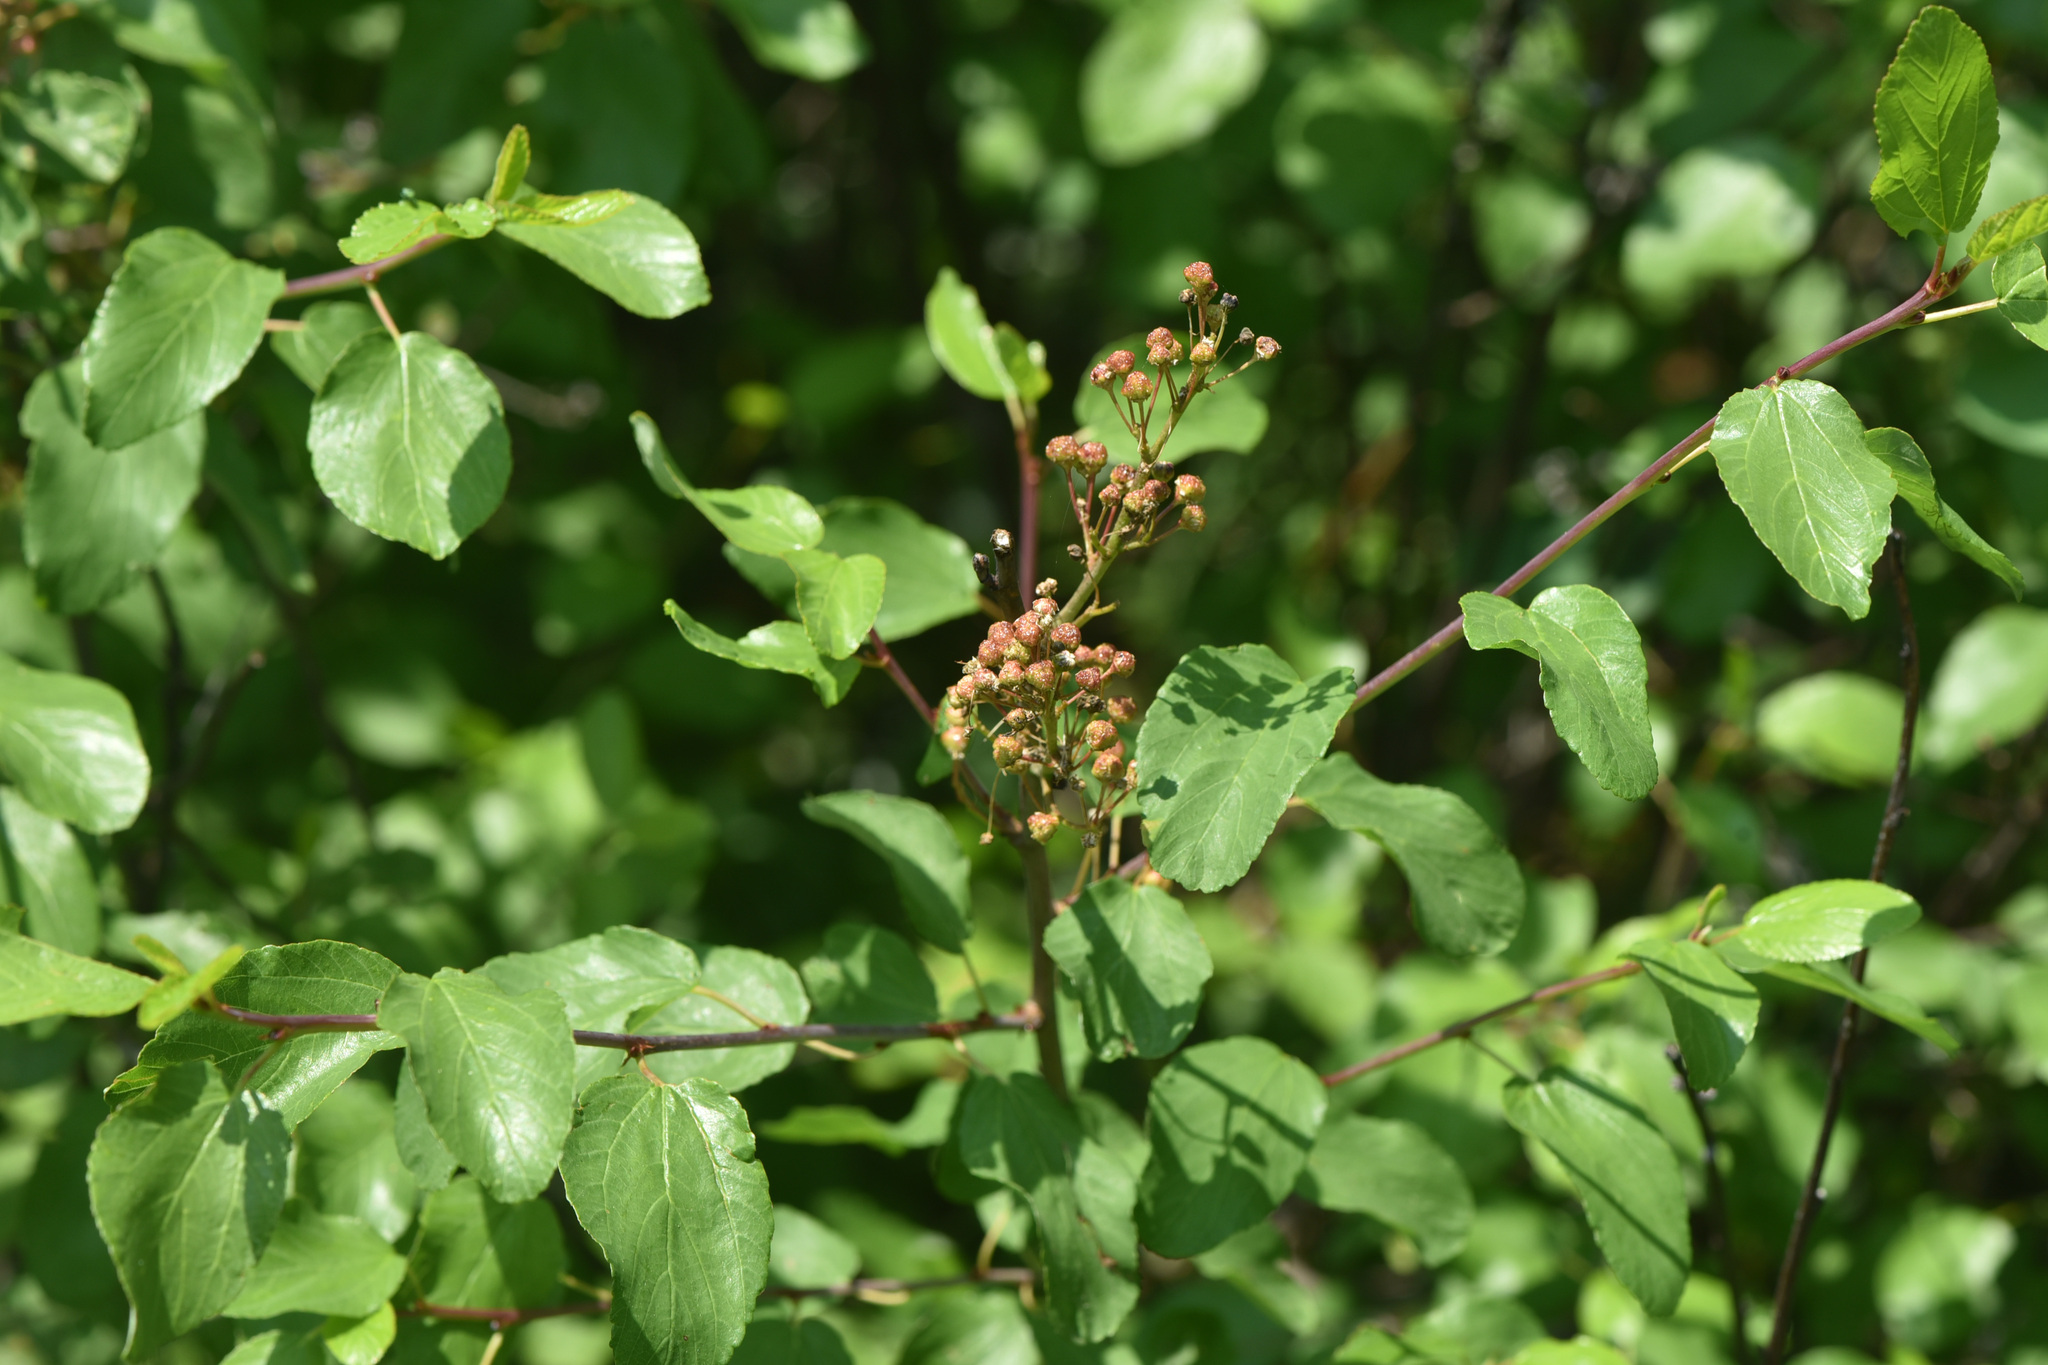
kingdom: Plantae
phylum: Tracheophyta
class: Magnoliopsida
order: Rosales
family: Rhamnaceae
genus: Ceanothus
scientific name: Ceanothus sanguineus
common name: Teatree
